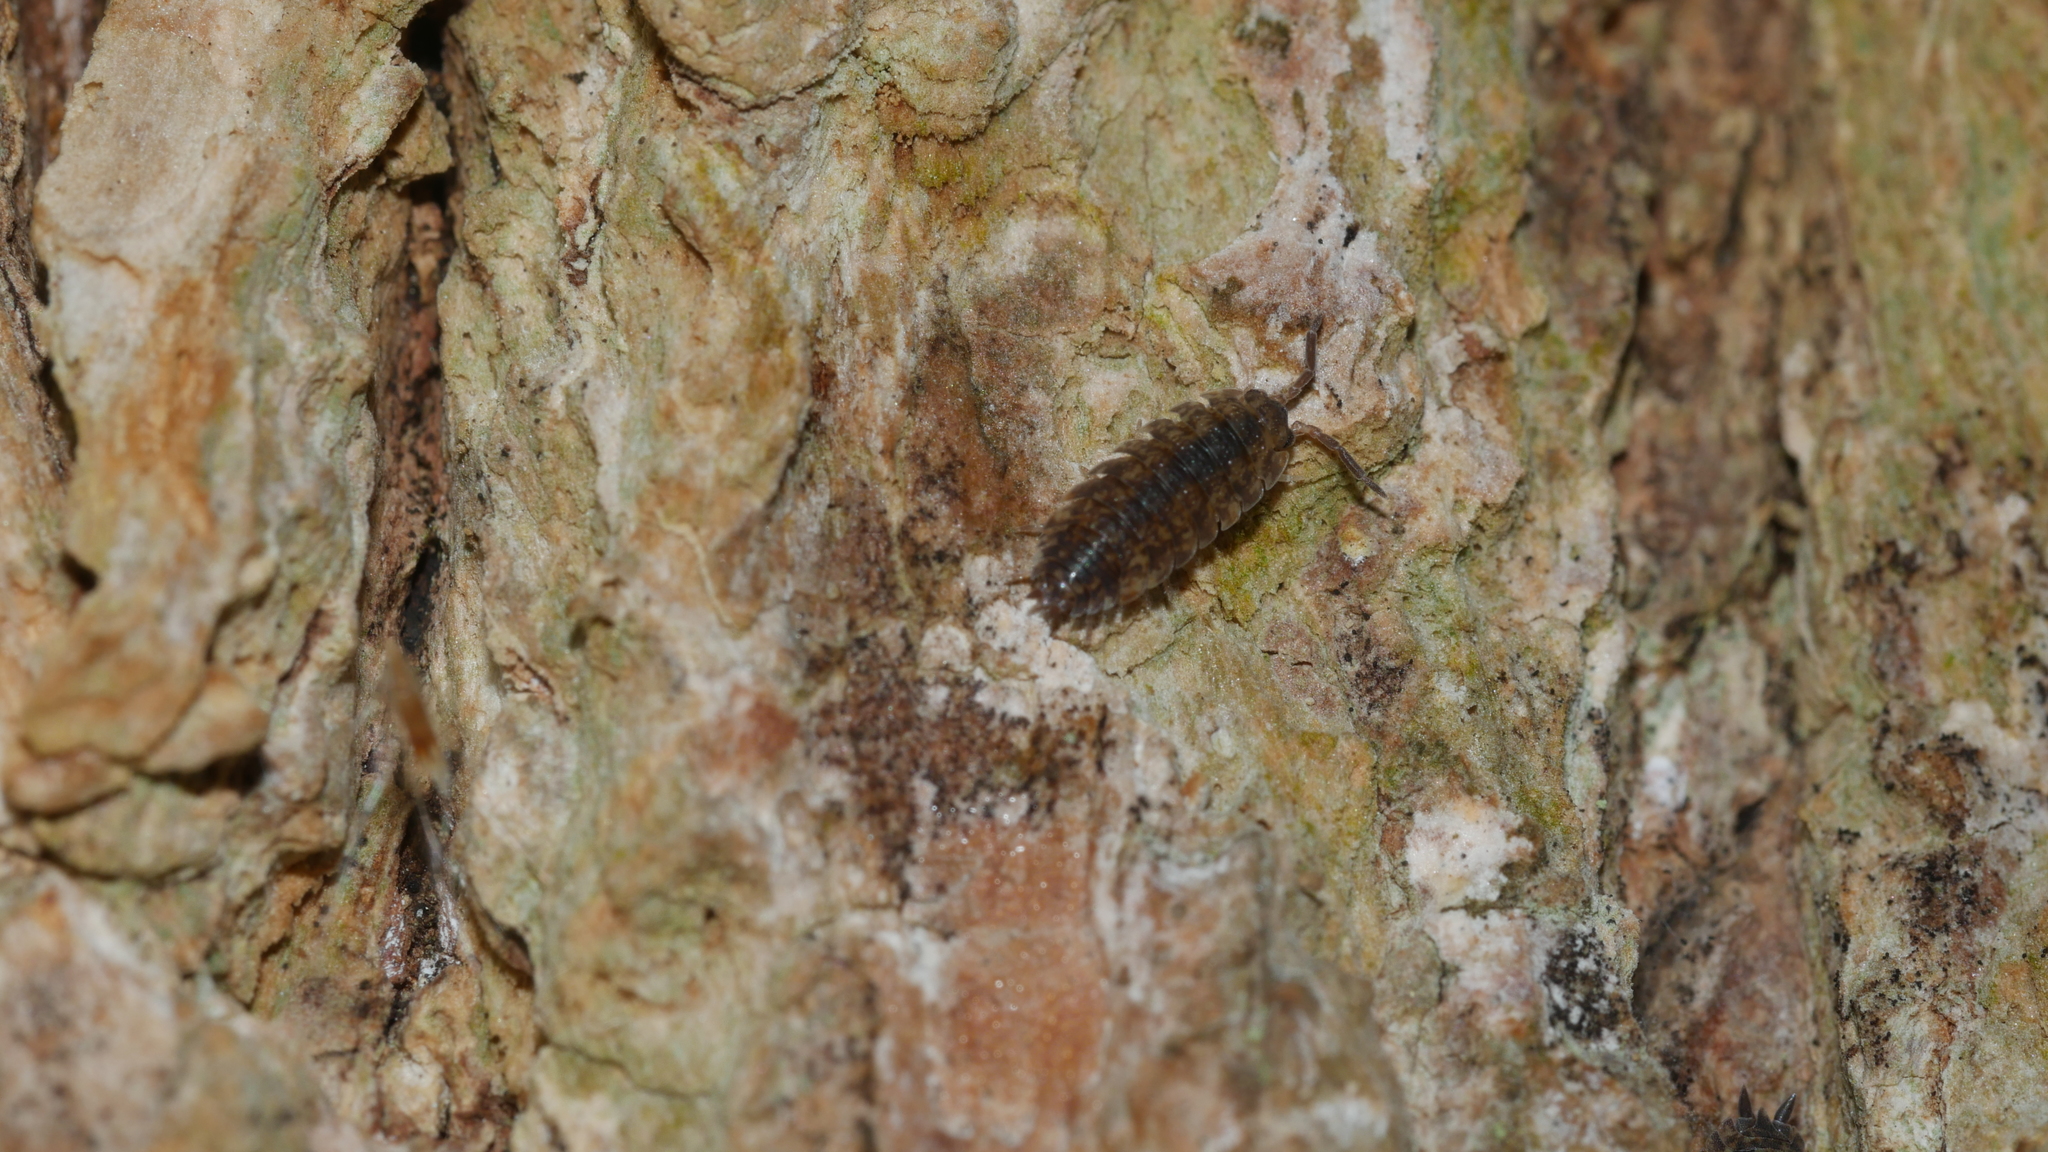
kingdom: Animalia
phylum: Arthropoda
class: Malacostraca
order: Isopoda
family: Porcellionidae
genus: Porcellio
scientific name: Porcellio scaber
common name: Common rough woodlouse
